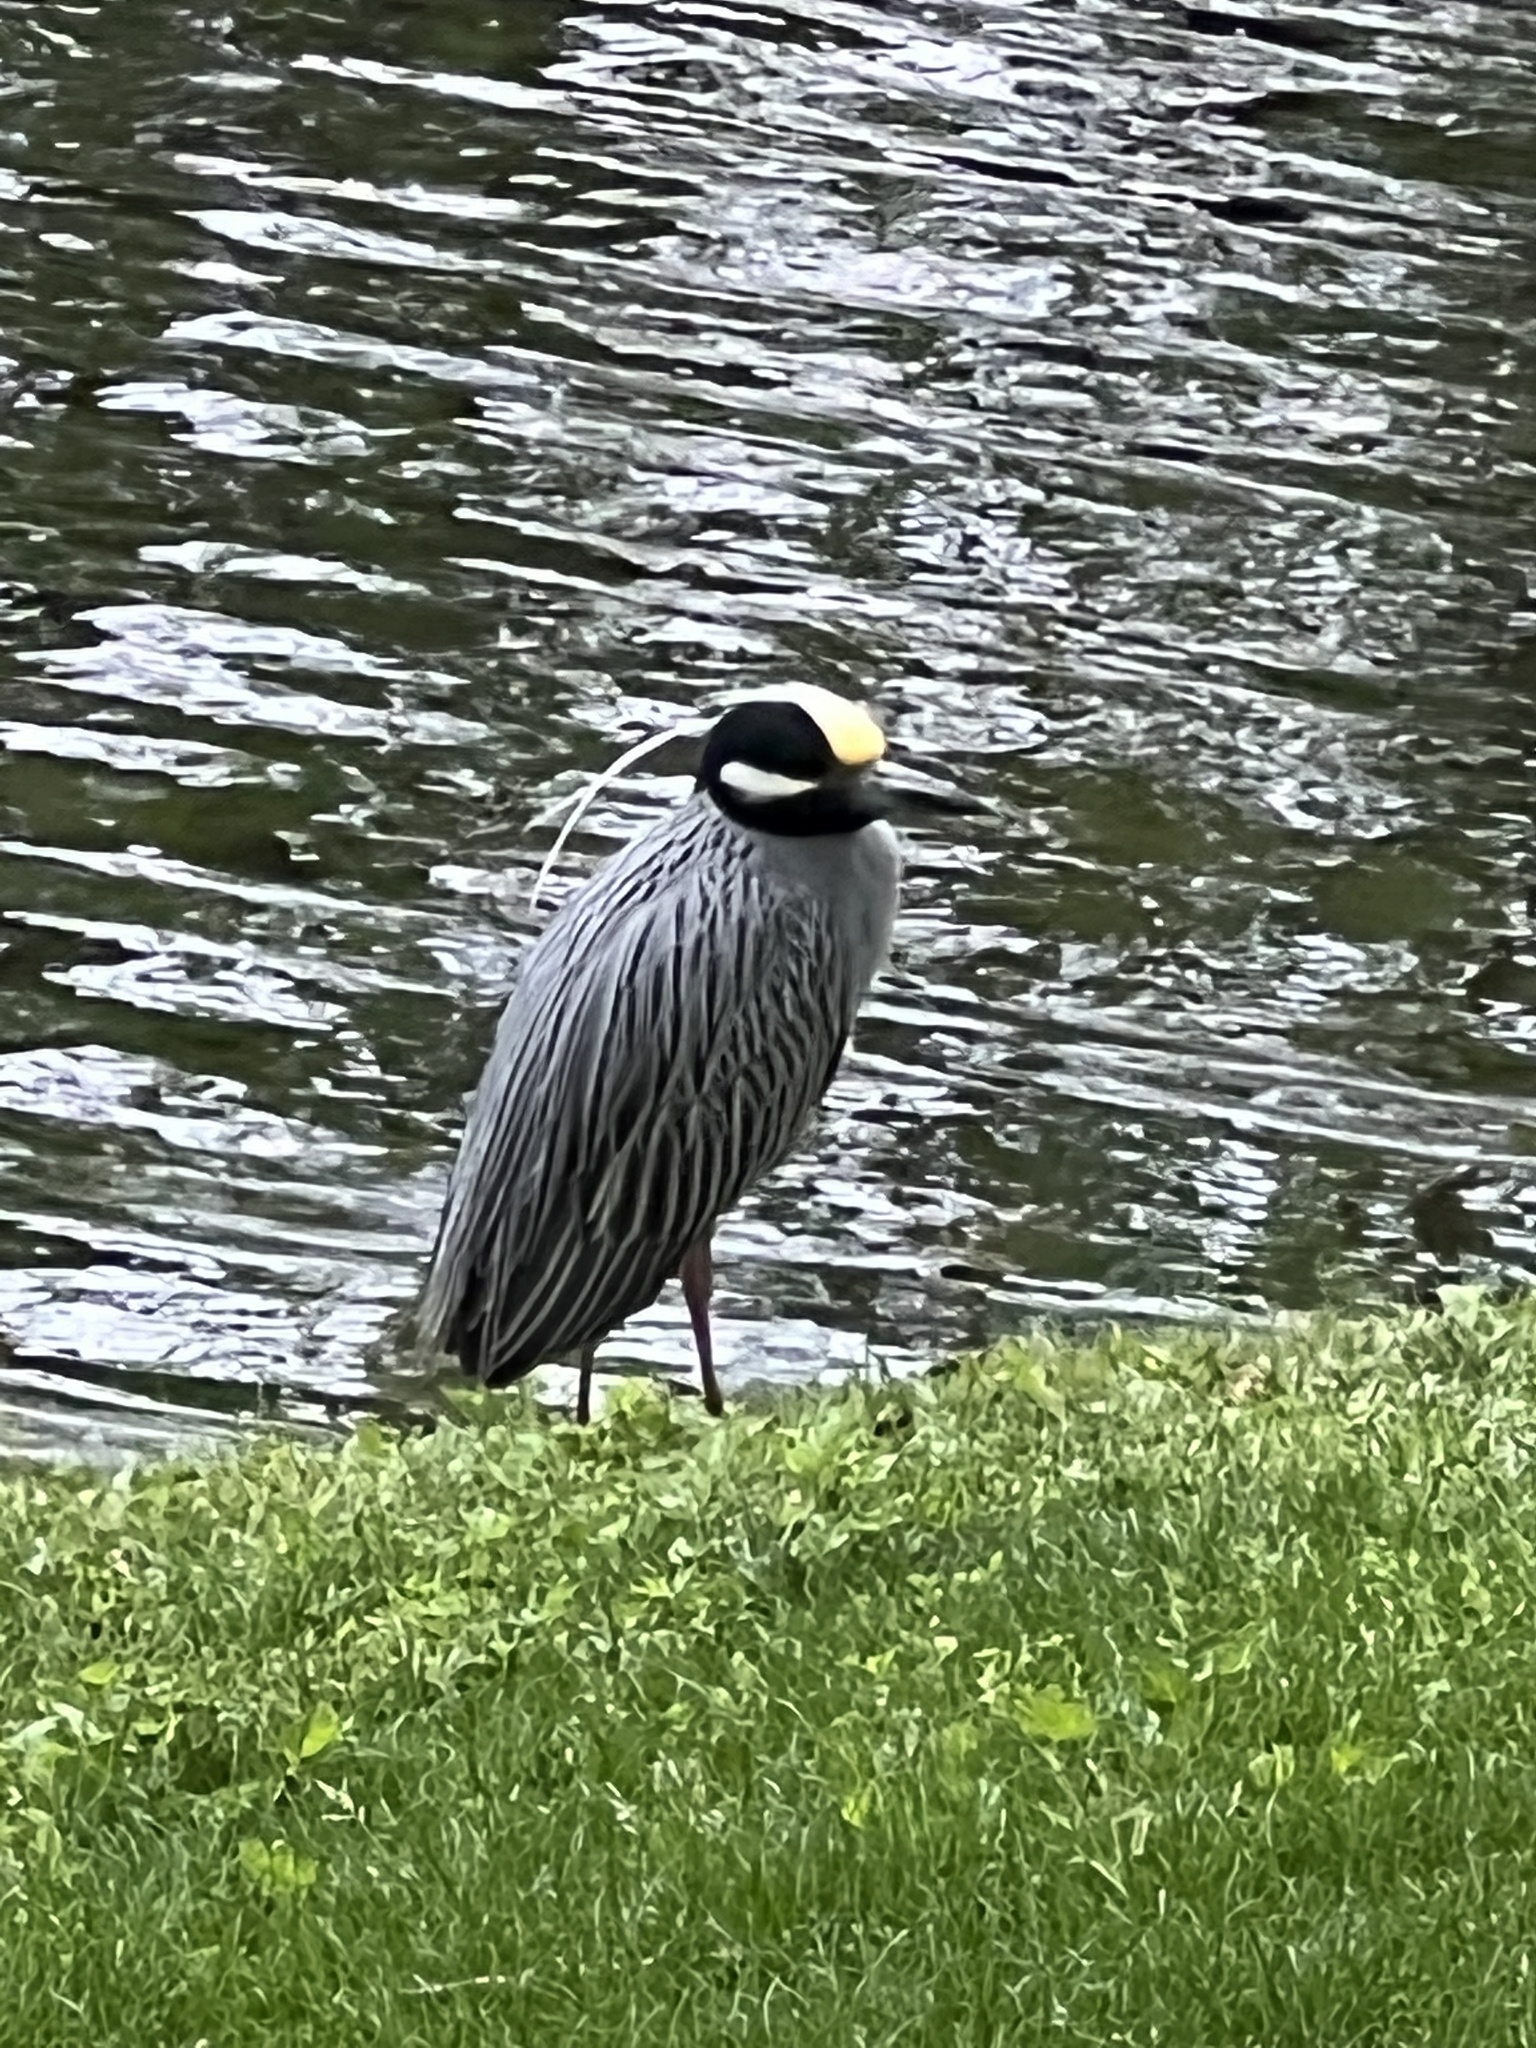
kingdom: Animalia
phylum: Chordata
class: Aves
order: Pelecaniformes
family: Ardeidae
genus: Nyctanassa
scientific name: Nyctanassa violacea
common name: Yellow-crowned night heron
